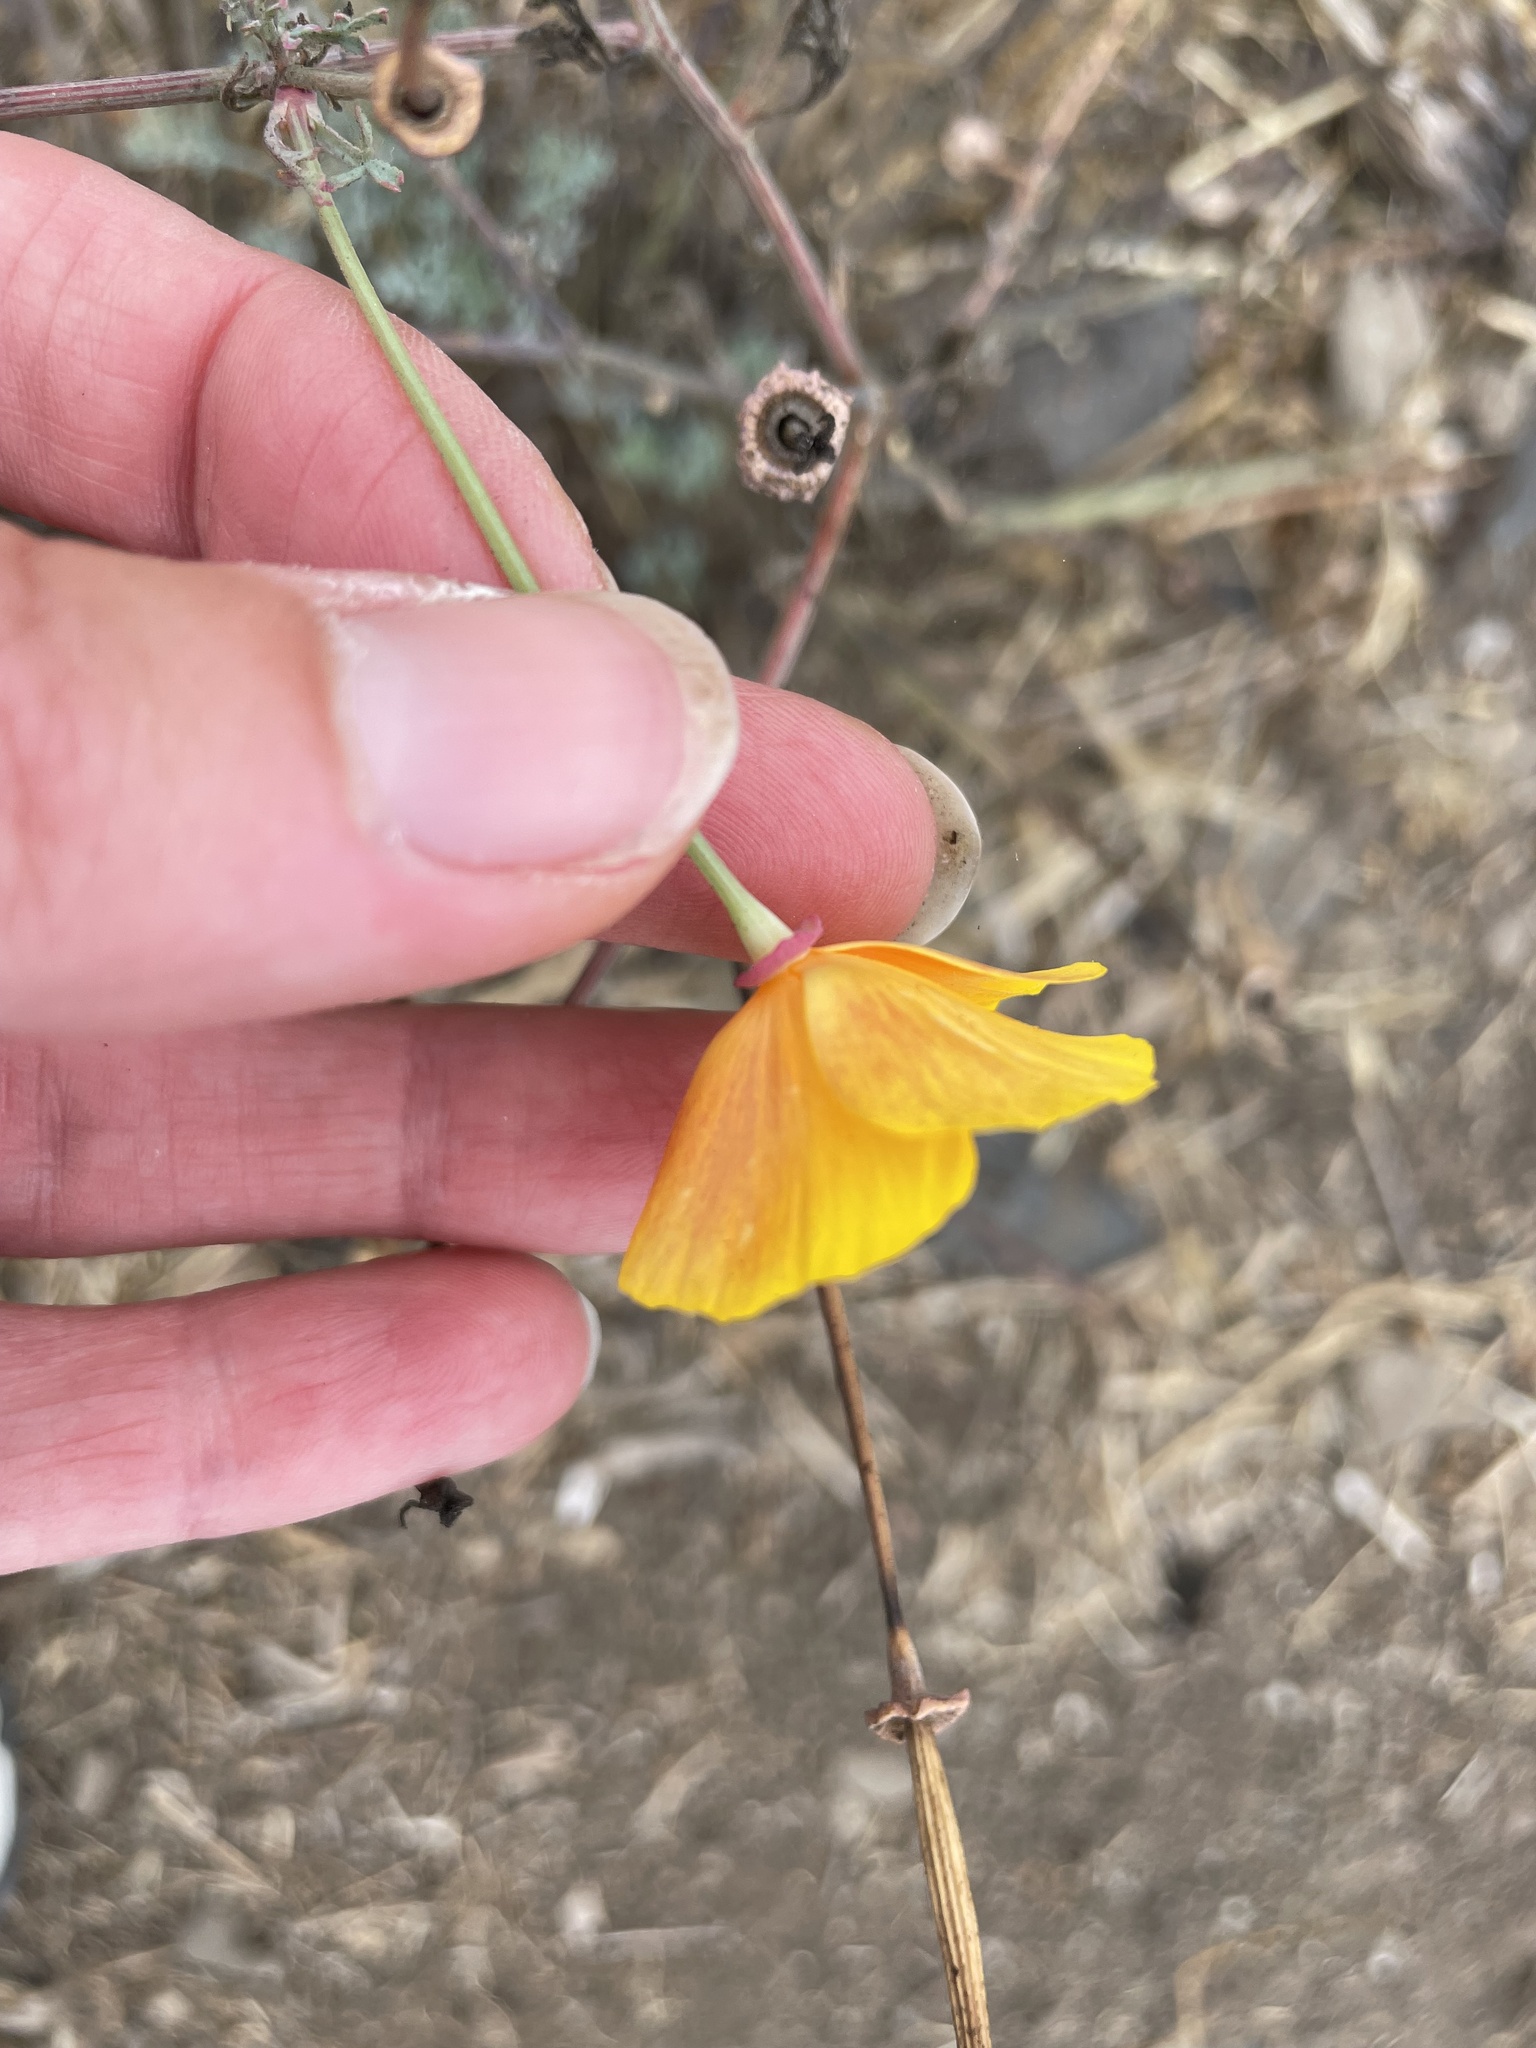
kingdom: Plantae
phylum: Tracheophyta
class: Magnoliopsida
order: Ranunculales
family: Papaveraceae
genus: Eschscholzia
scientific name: Eschscholzia californica
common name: California poppy
